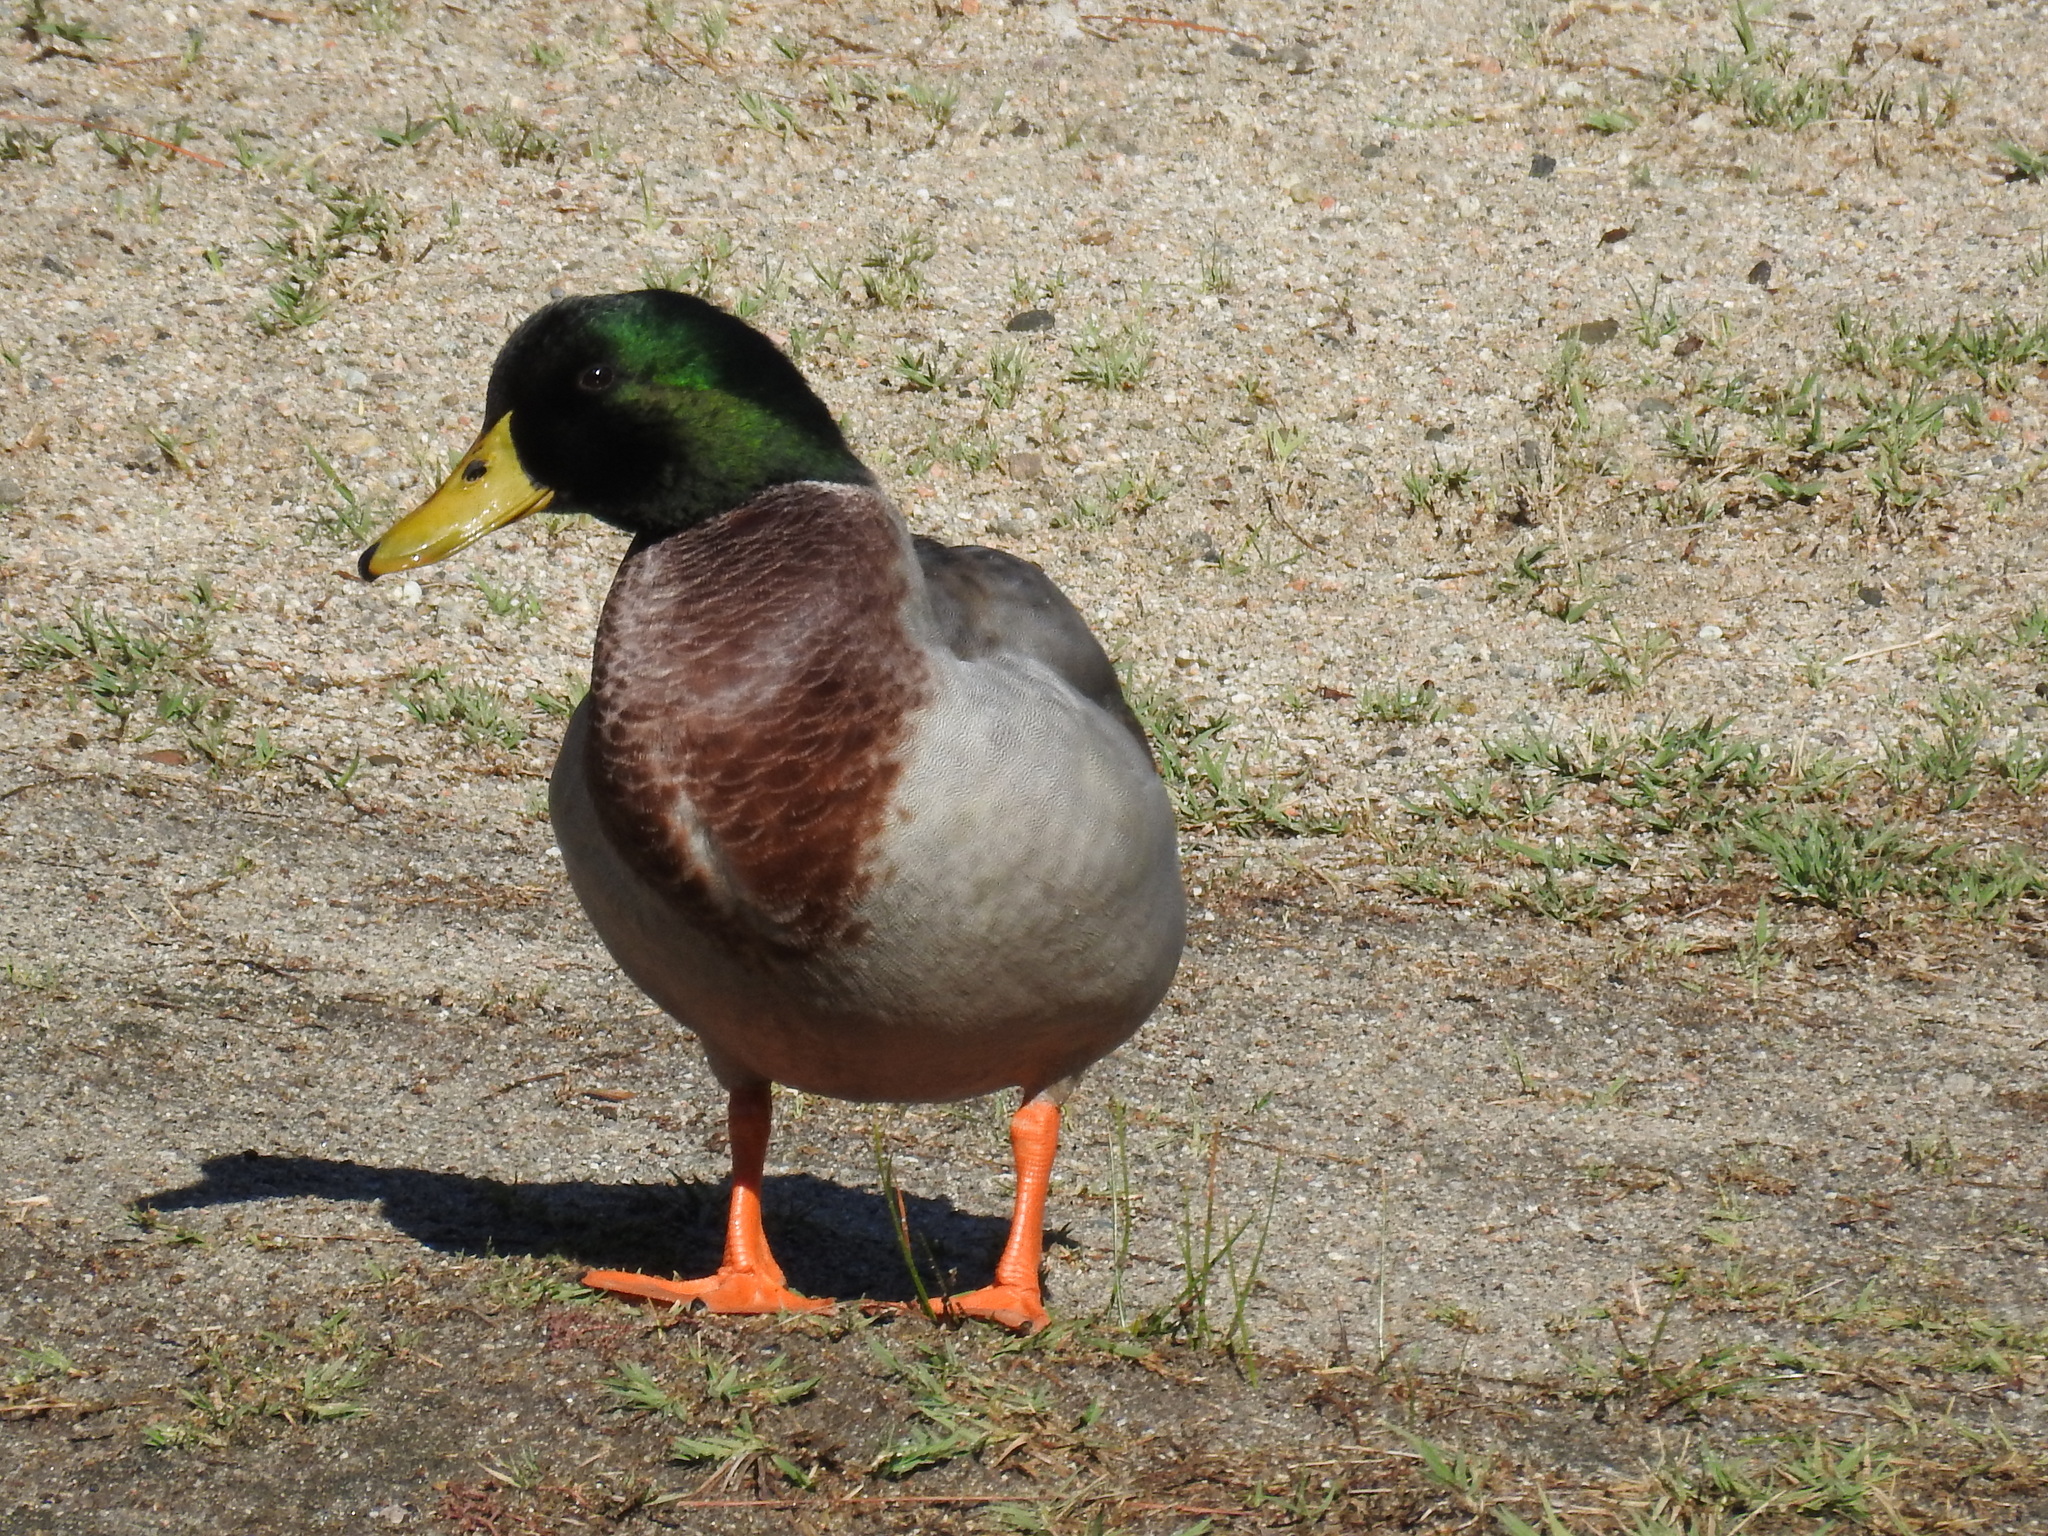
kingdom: Animalia
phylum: Chordata
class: Aves
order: Anseriformes
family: Anatidae
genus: Anas
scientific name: Anas platyrhynchos
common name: Mallard
